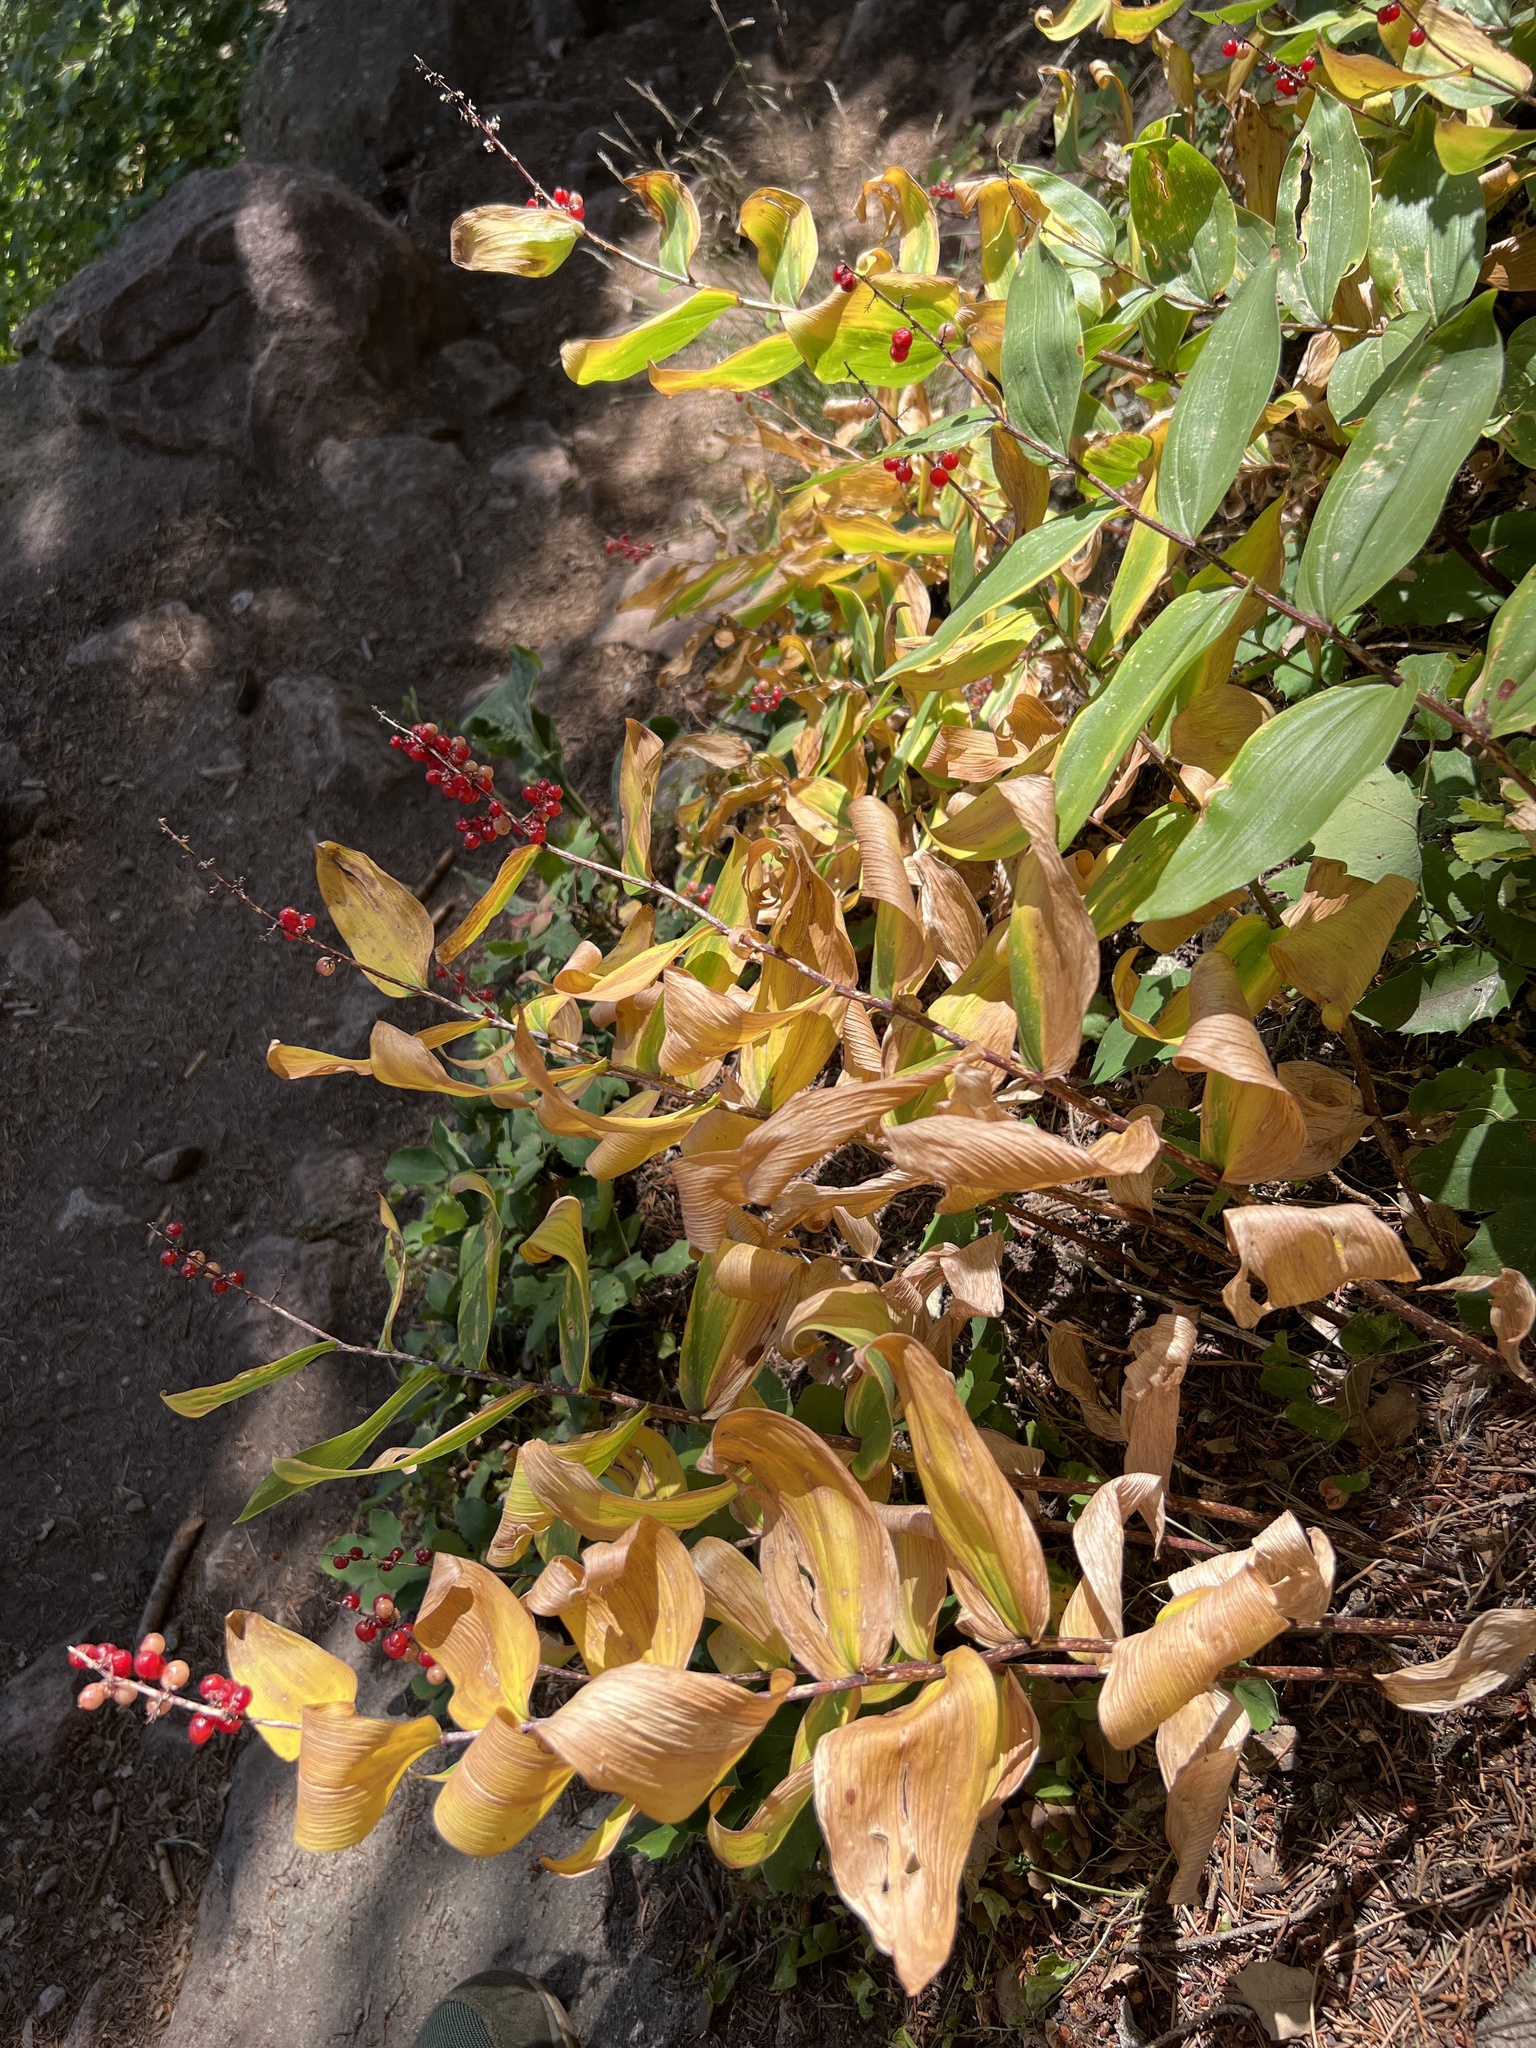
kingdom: Plantae
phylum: Tracheophyta
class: Liliopsida
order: Asparagales
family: Asparagaceae
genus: Maianthemum
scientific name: Maianthemum racemosum
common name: False spikenard
